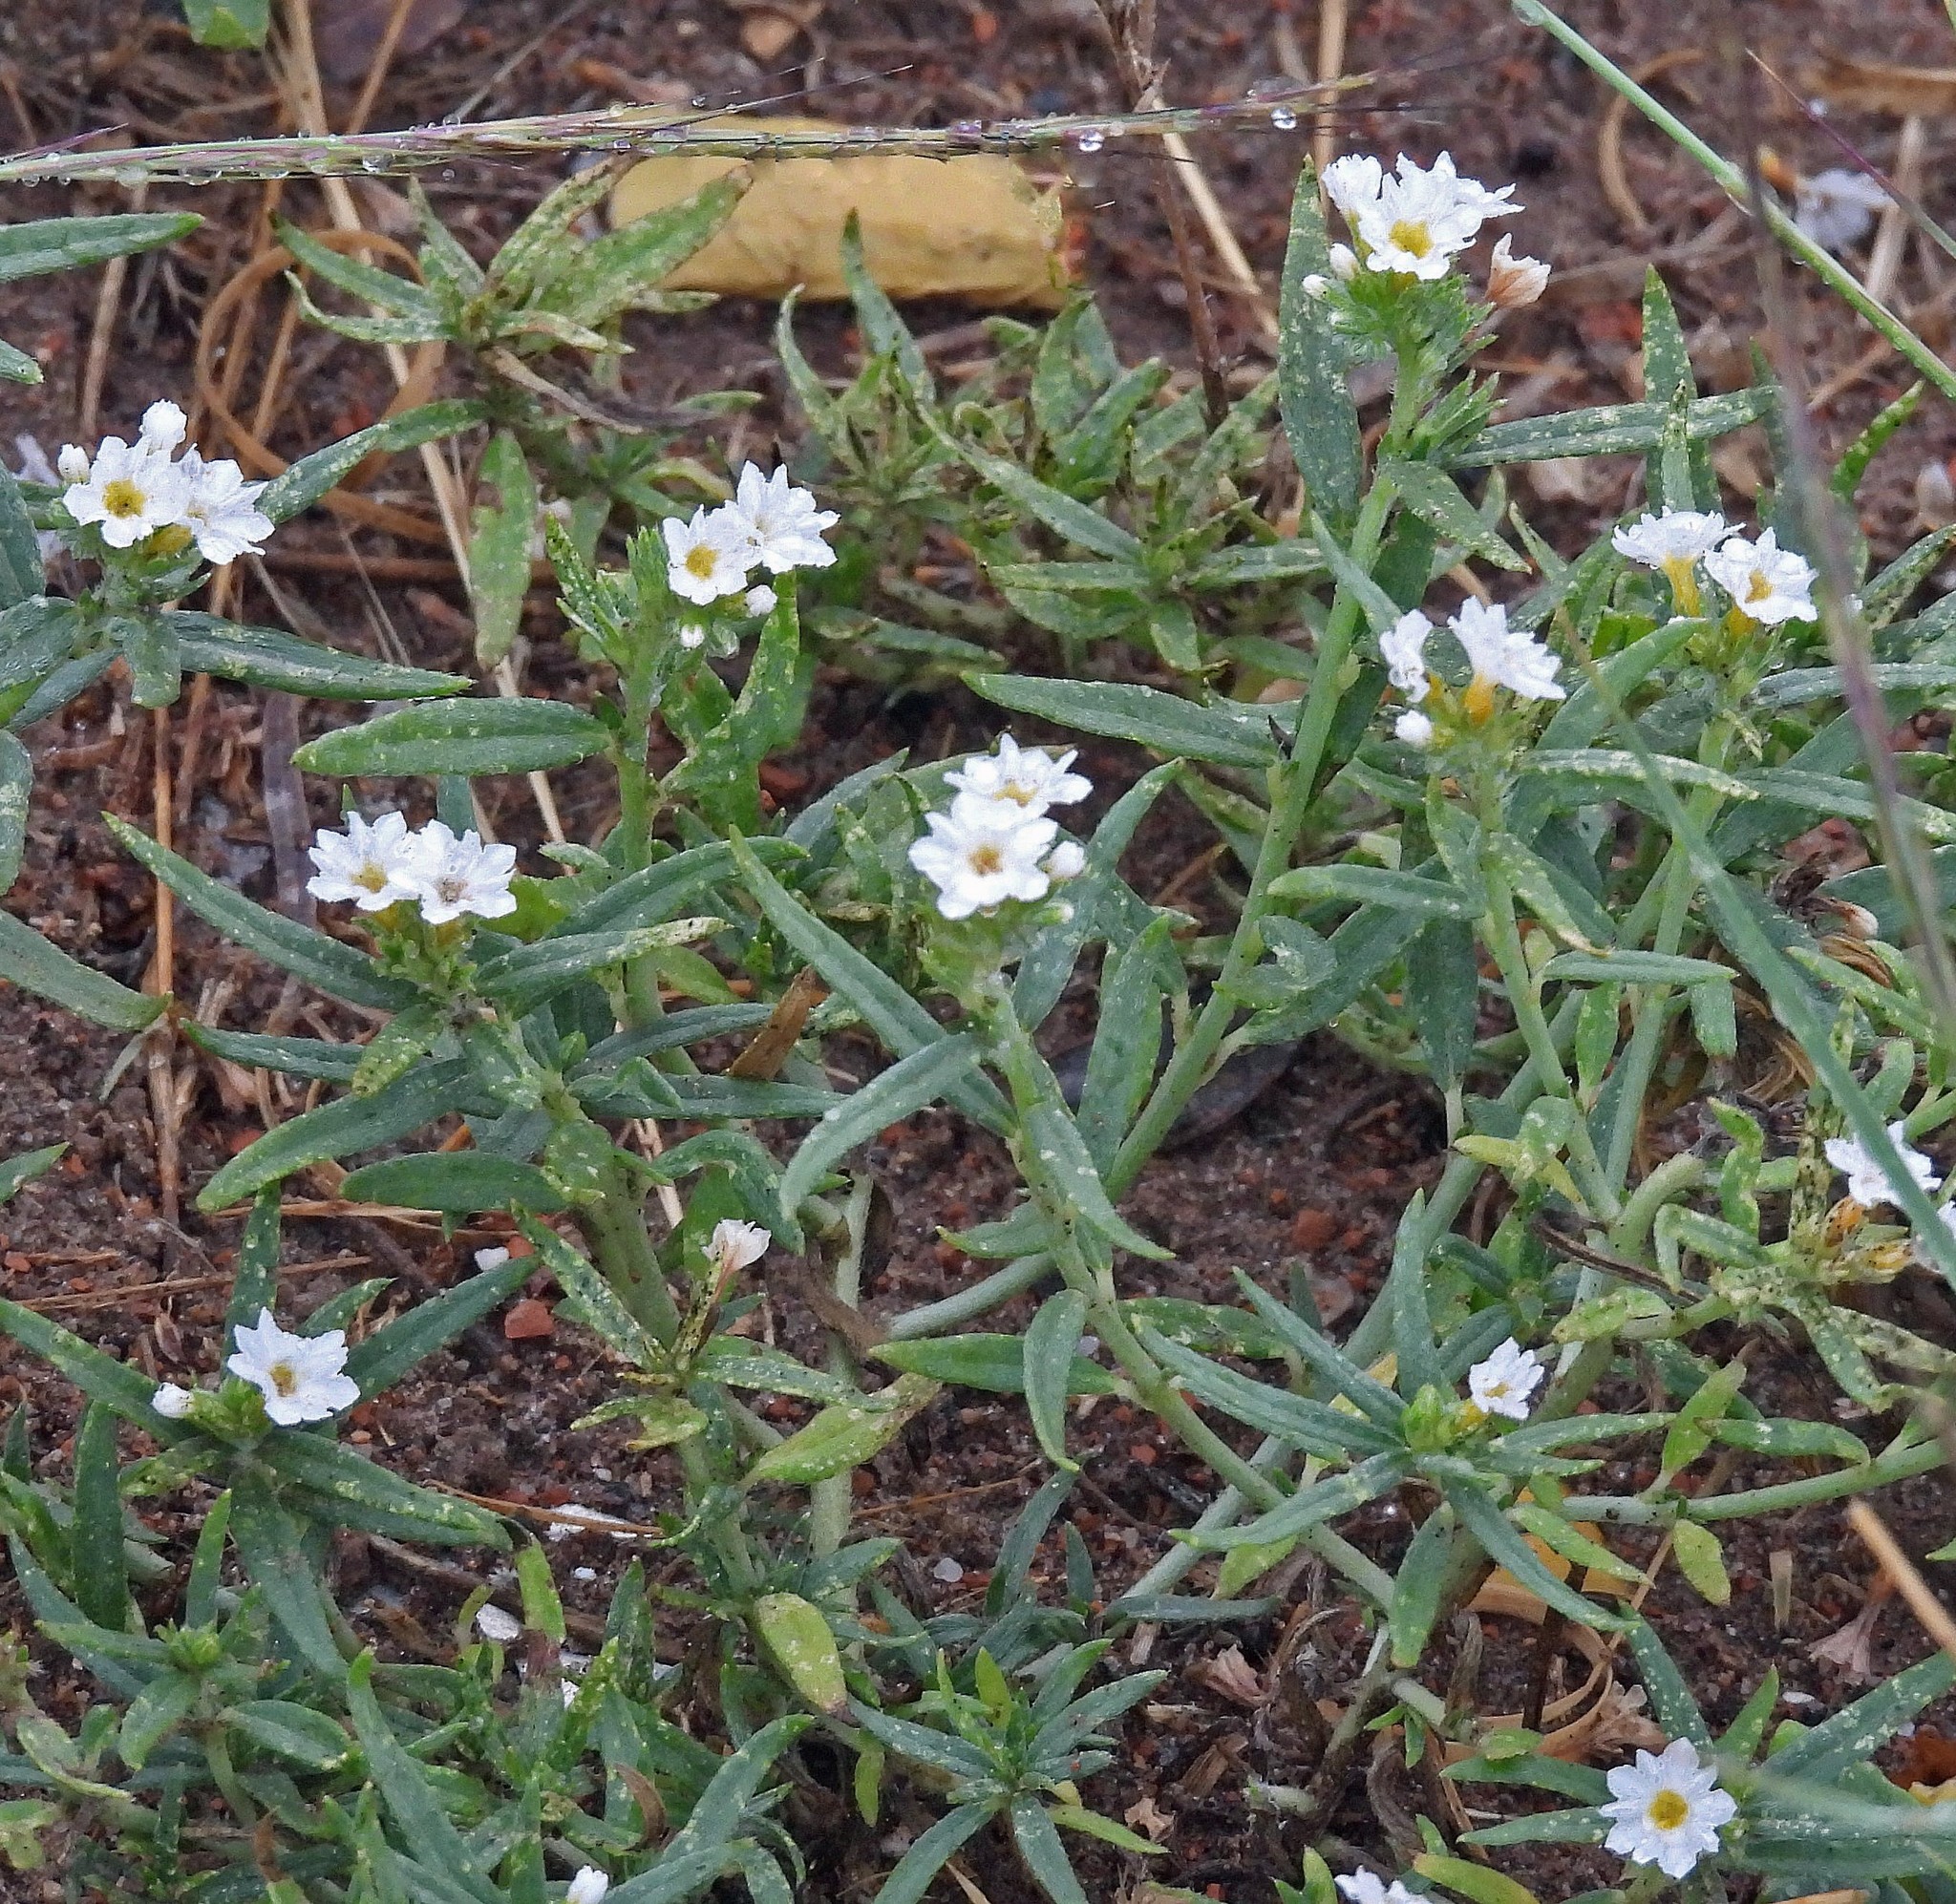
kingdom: Plantae
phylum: Tracheophyta
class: Magnoliopsida
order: Boraginales
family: Heliotropiaceae
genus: Euploca
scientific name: Euploca mendocina
